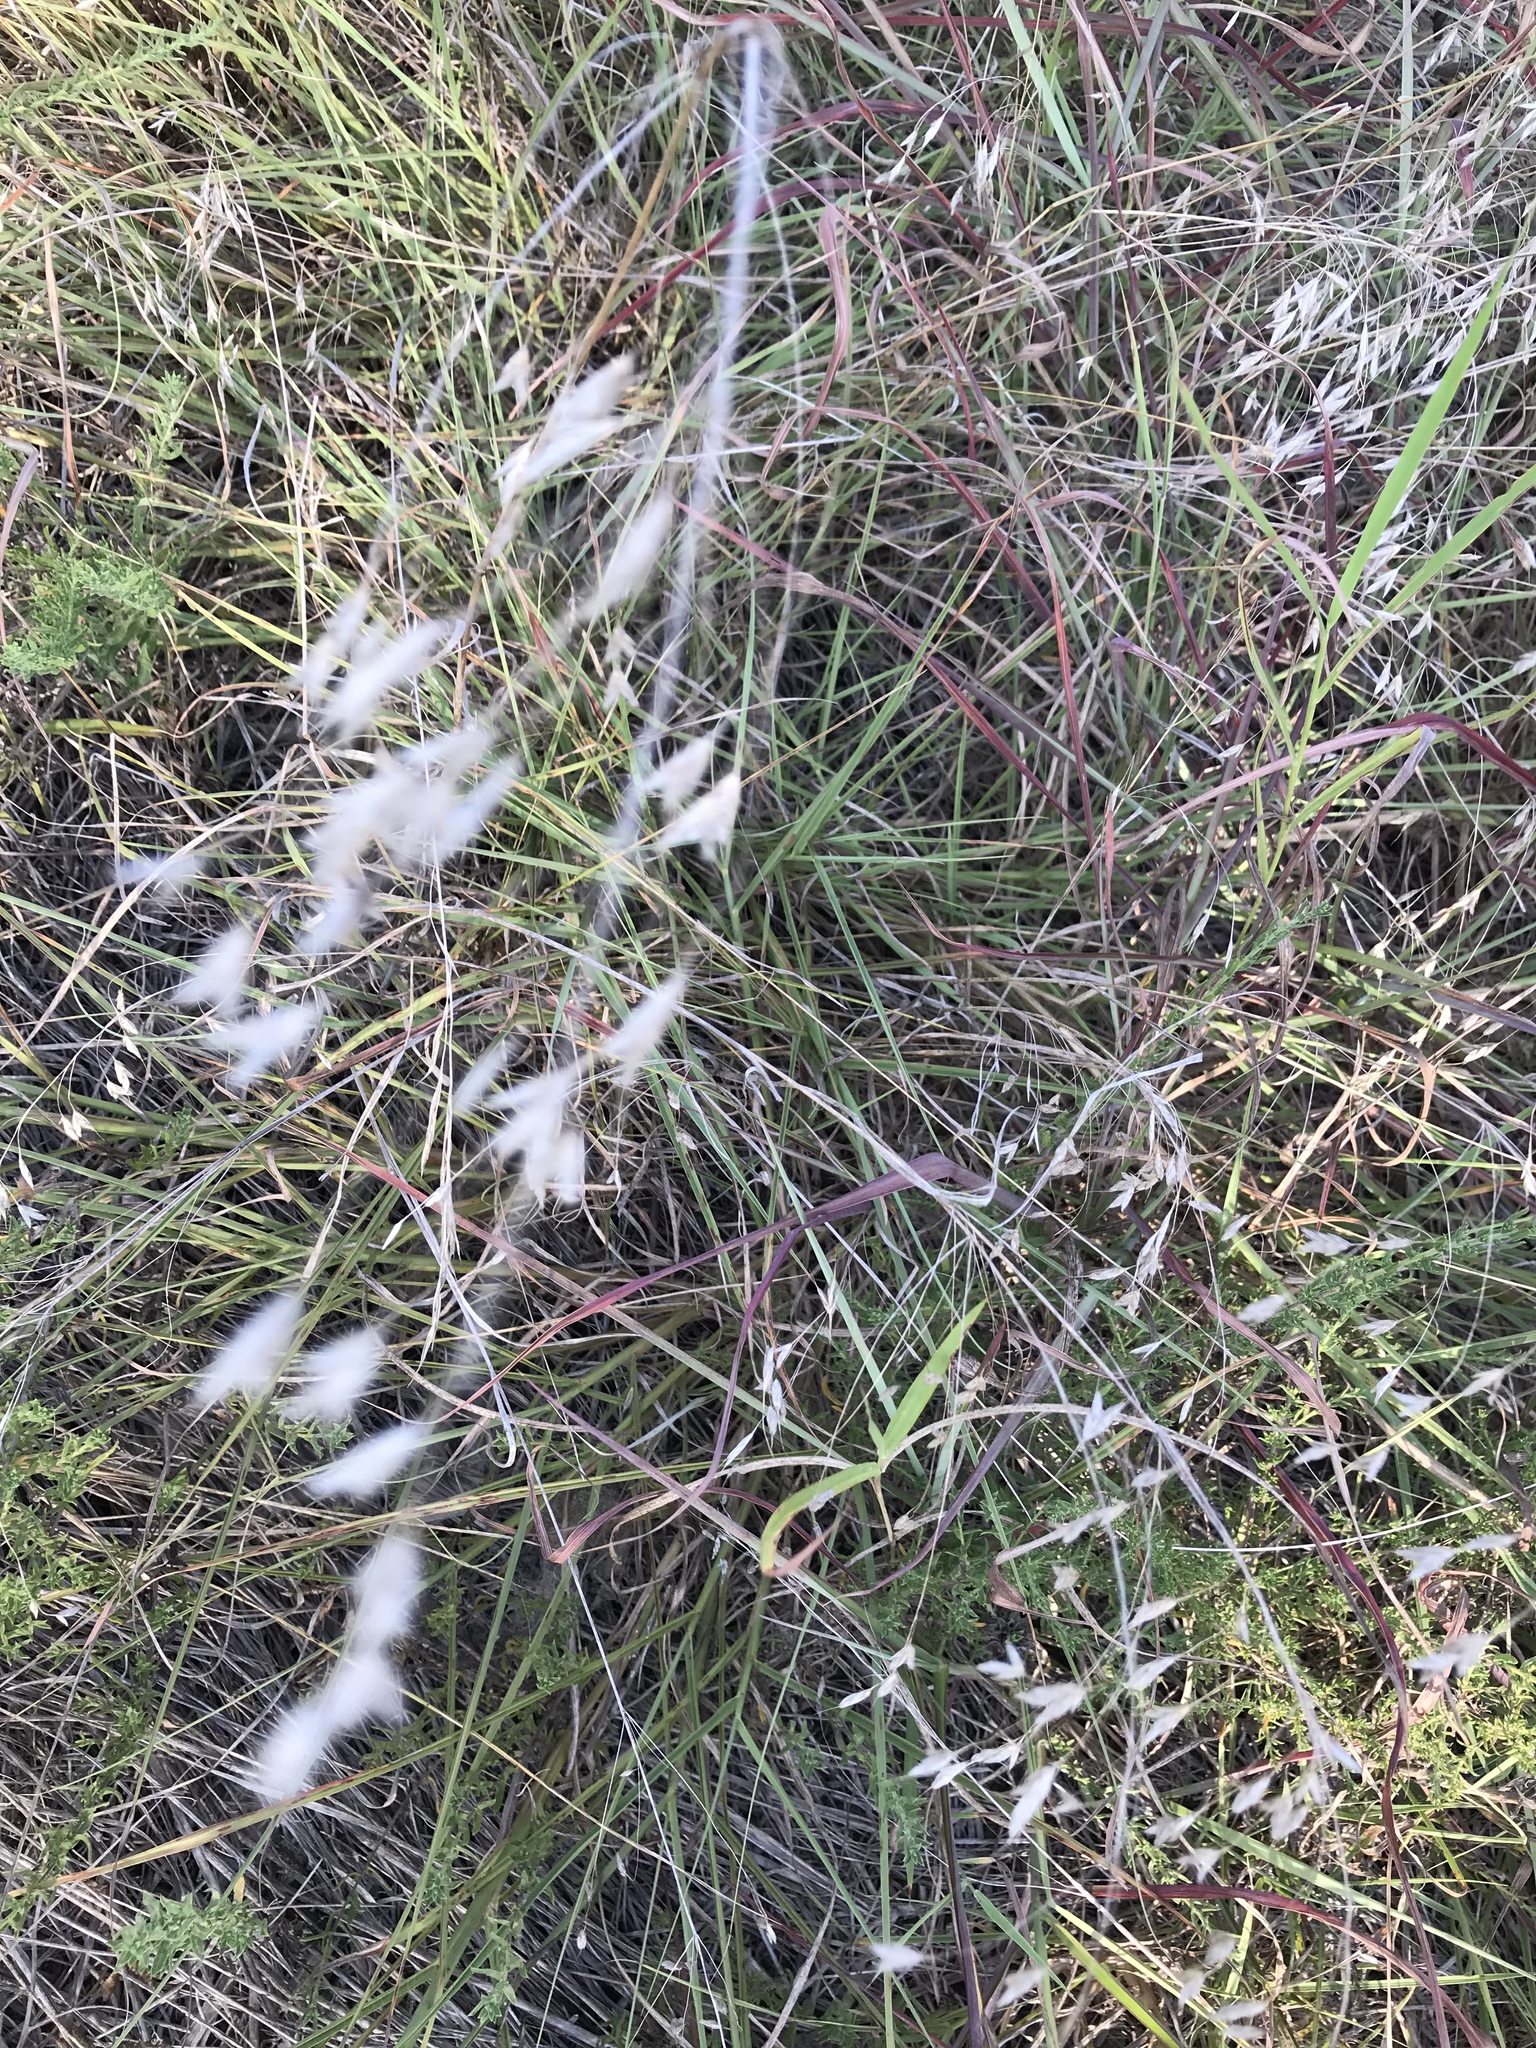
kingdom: Plantae
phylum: Tracheophyta
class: Liliopsida
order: Poales
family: Poaceae
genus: Bromus
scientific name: Bromus japonicus
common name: Japanese brome
